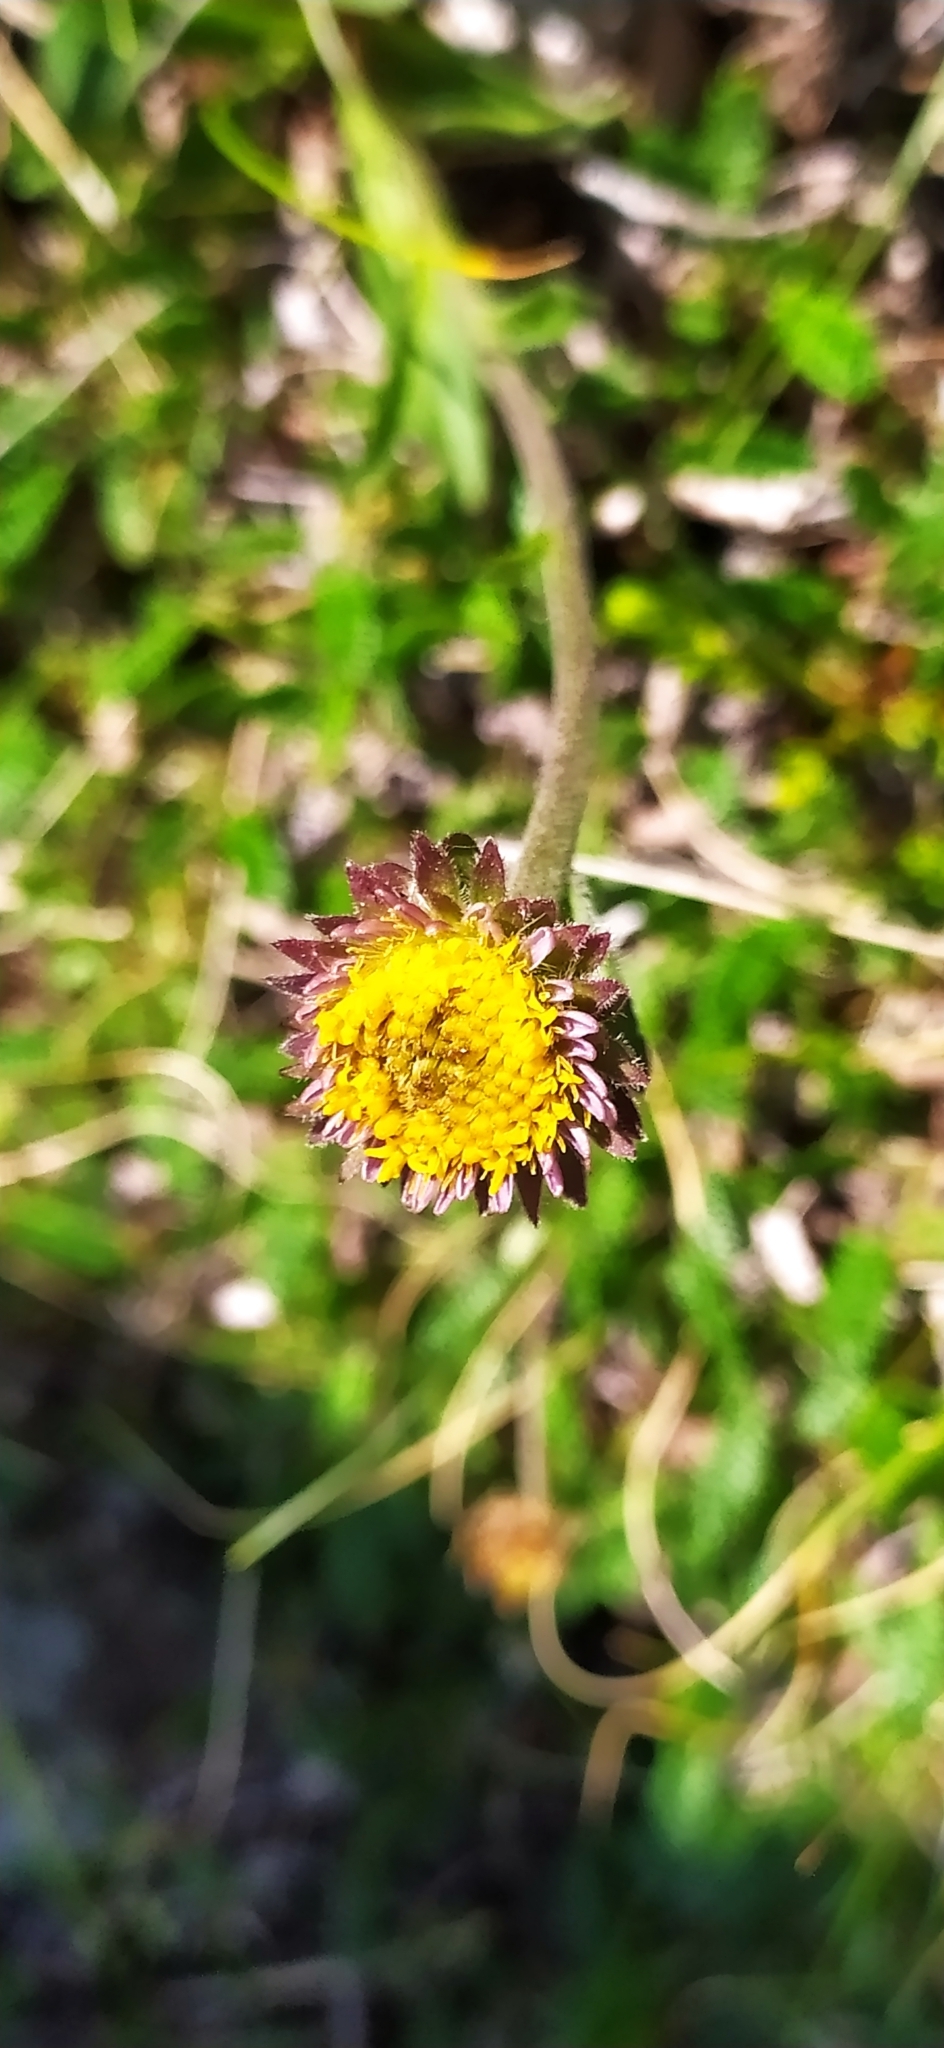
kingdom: Plantae
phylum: Tracheophyta
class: Magnoliopsida
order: Asterales
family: Asteraceae
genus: Aster
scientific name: Aster alpinus
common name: Alpine aster
